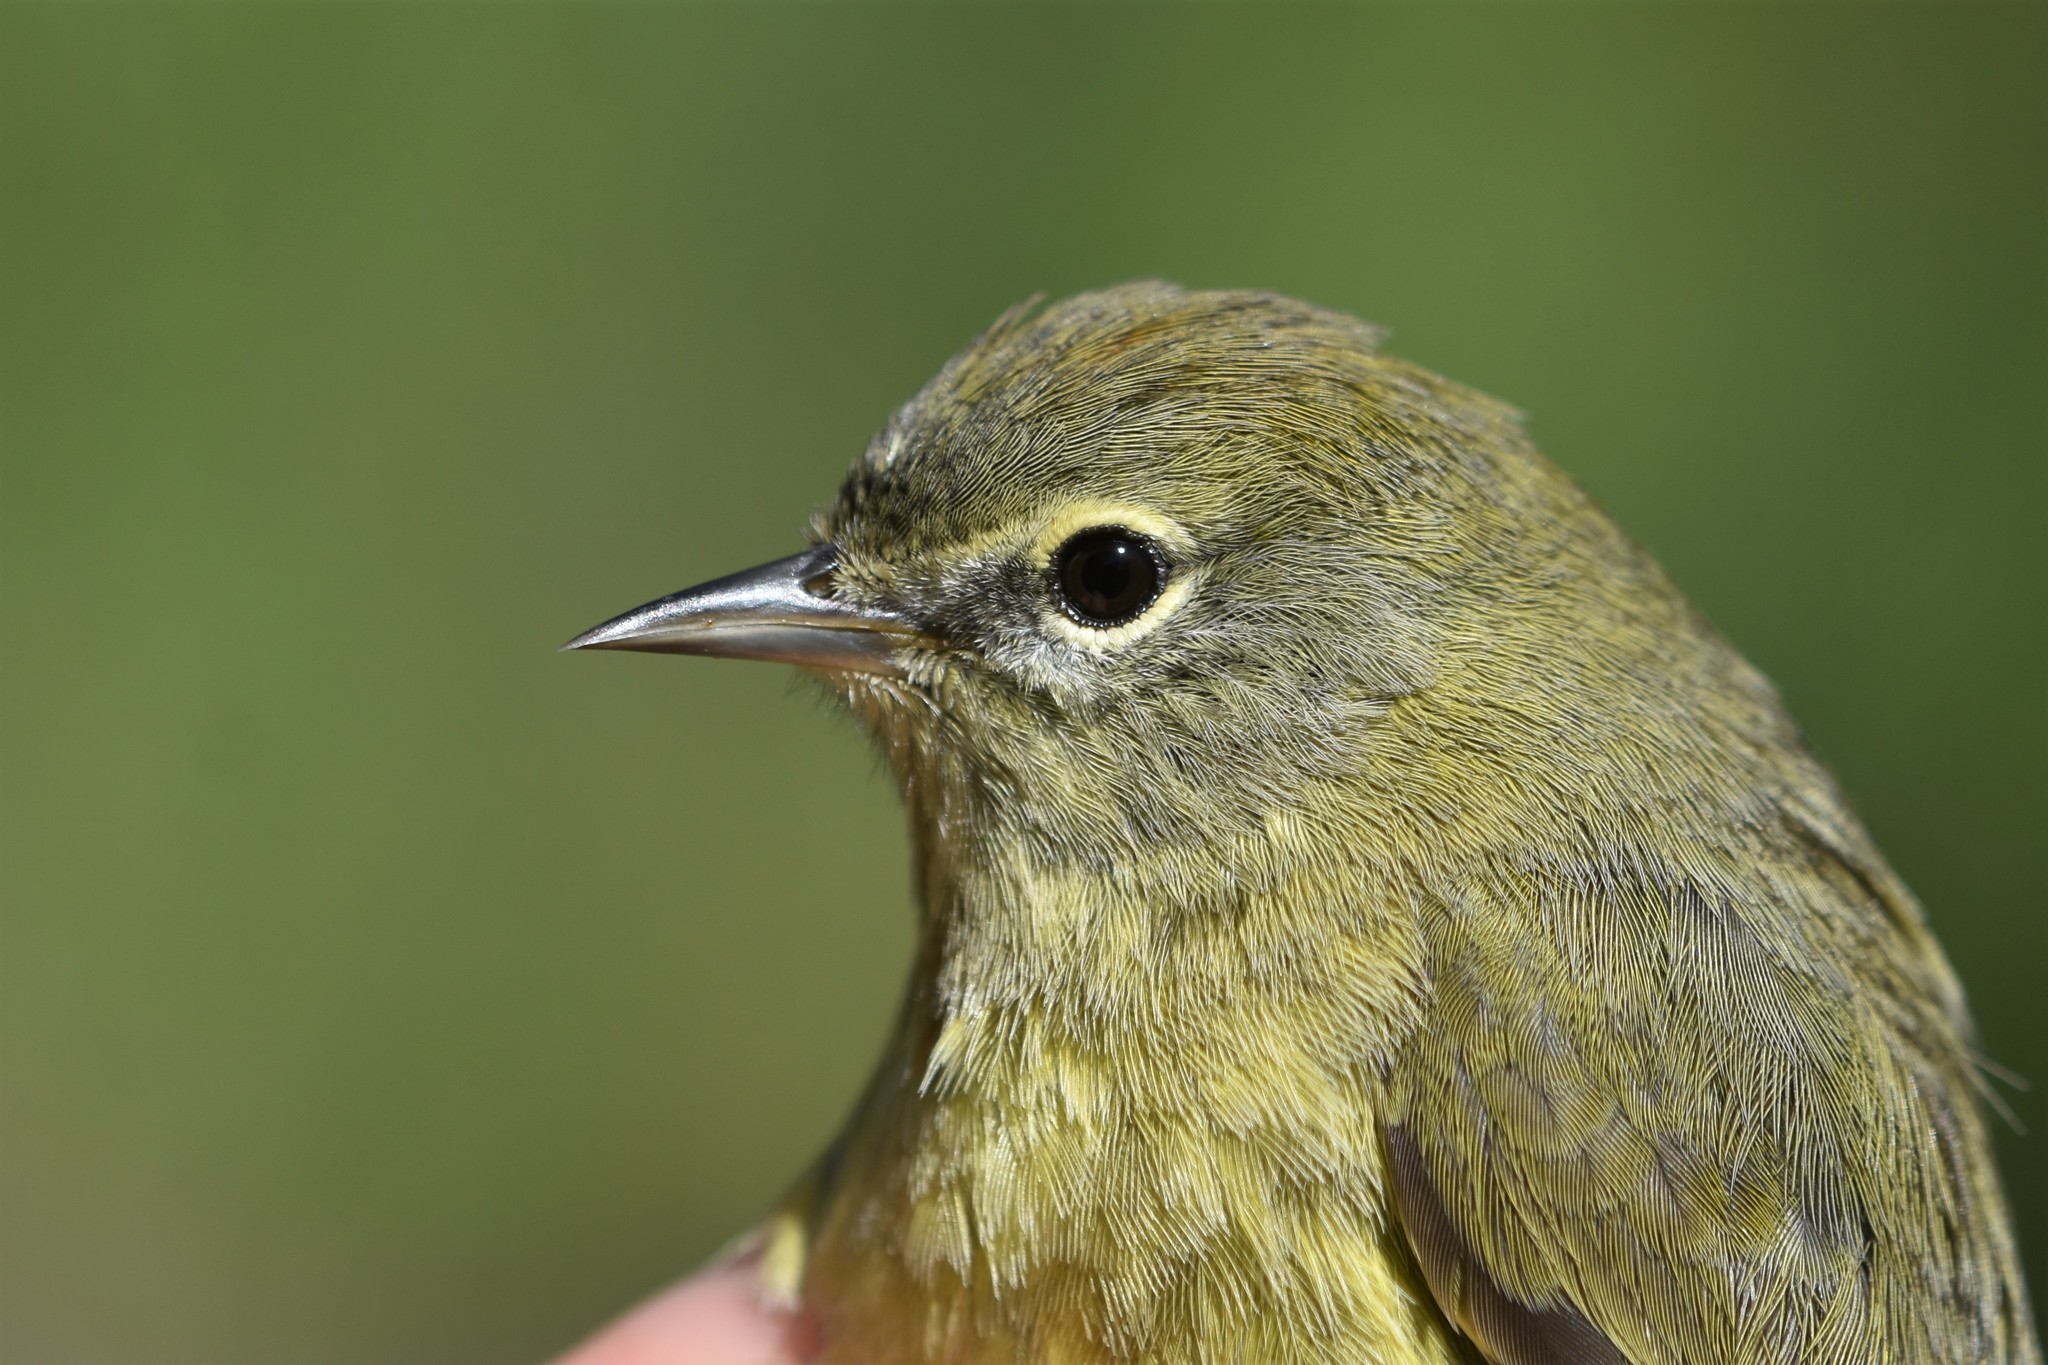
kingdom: Animalia
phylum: Chordata
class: Aves
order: Passeriformes
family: Parulidae
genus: Leiothlypis
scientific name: Leiothlypis celata
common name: Orange-crowned warbler
